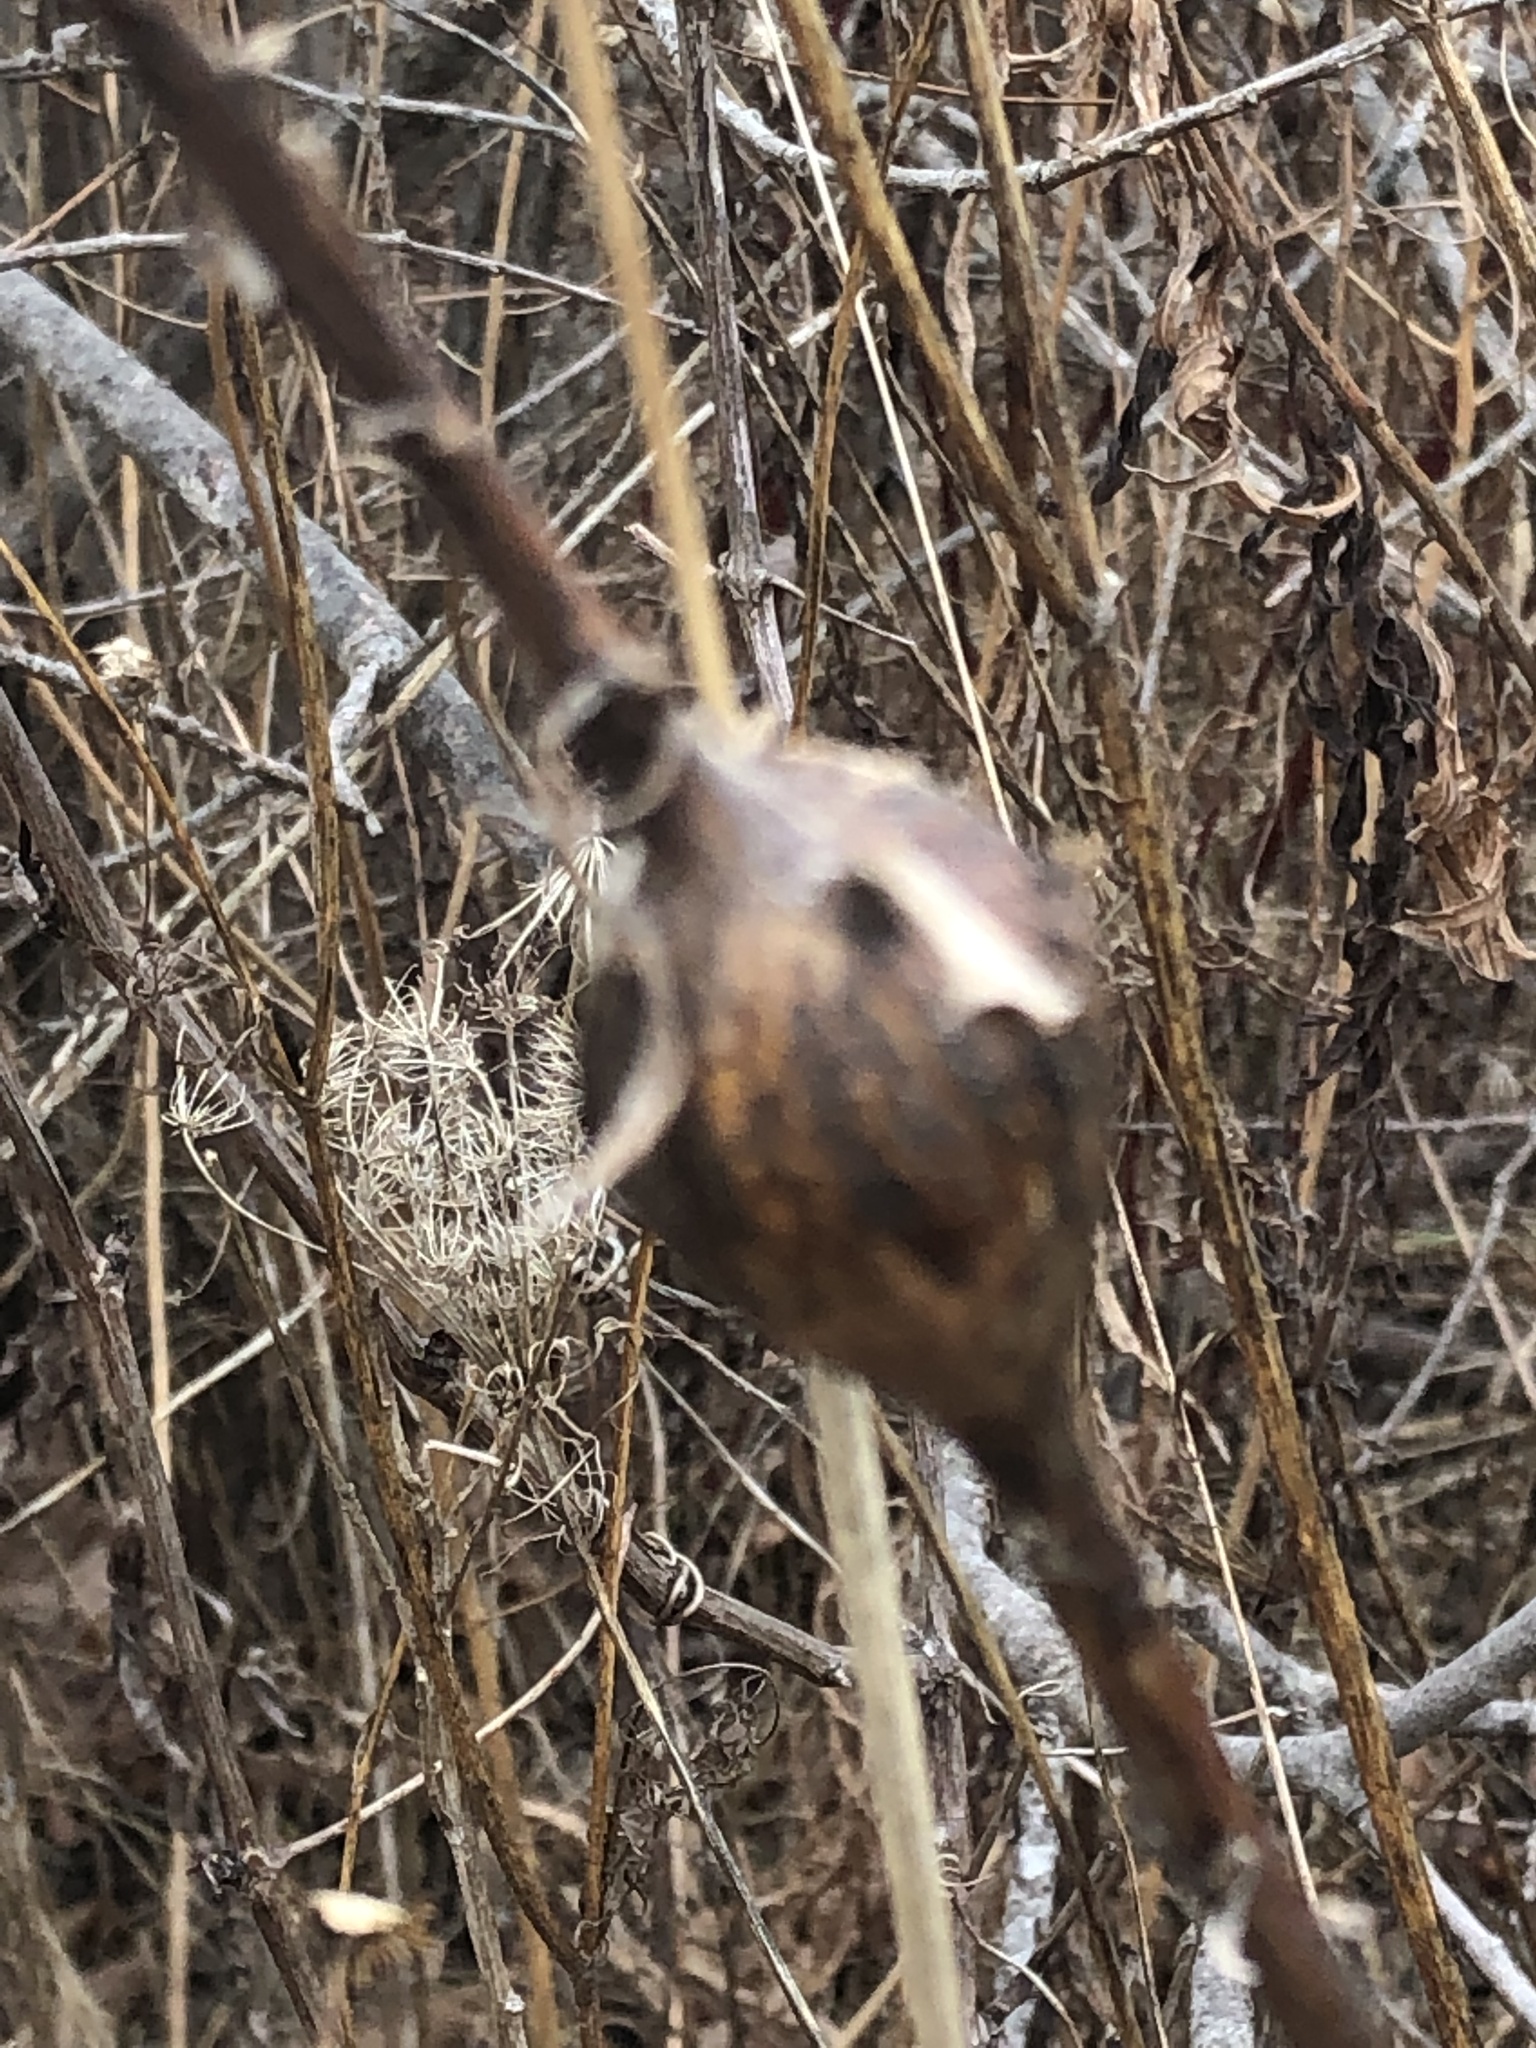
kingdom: Animalia
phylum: Arthropoda
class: Insecta
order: Diptera
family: Tephritidae
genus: Eurosta
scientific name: Eurosta solidaginis
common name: Goldenrod gall fly
